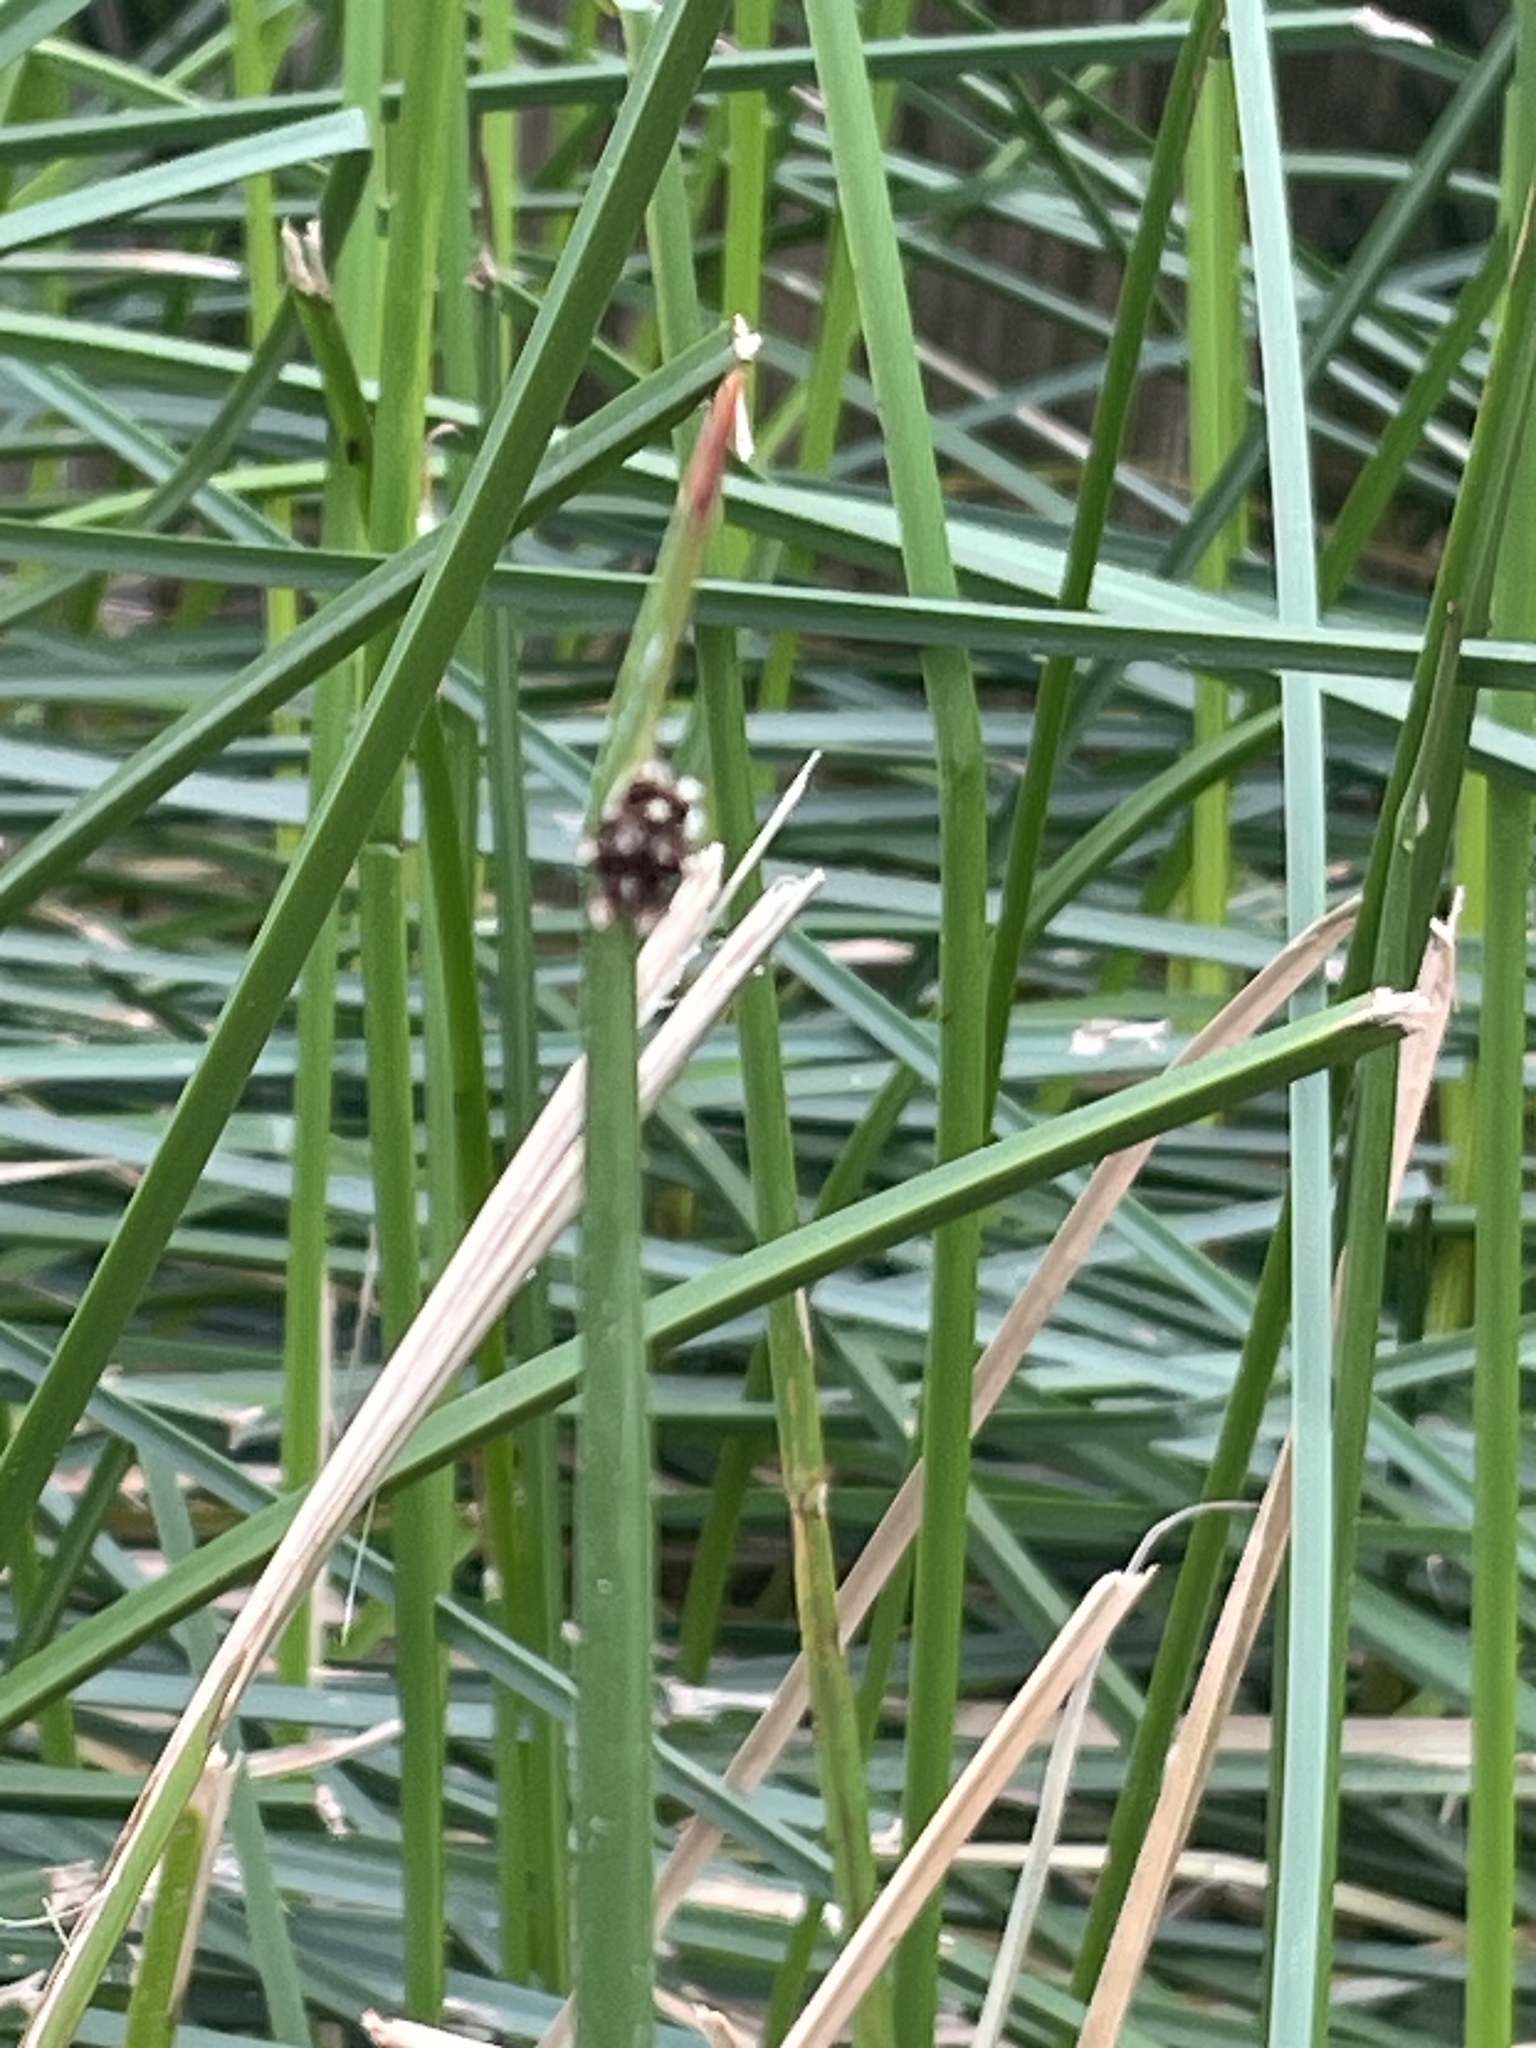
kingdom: Plantae
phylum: Tracheophyta
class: Liliopsida
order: Poales
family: Cyperaceae
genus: Schoenoplectus
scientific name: Schoenoplectus americanus
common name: American three-square bulrush
